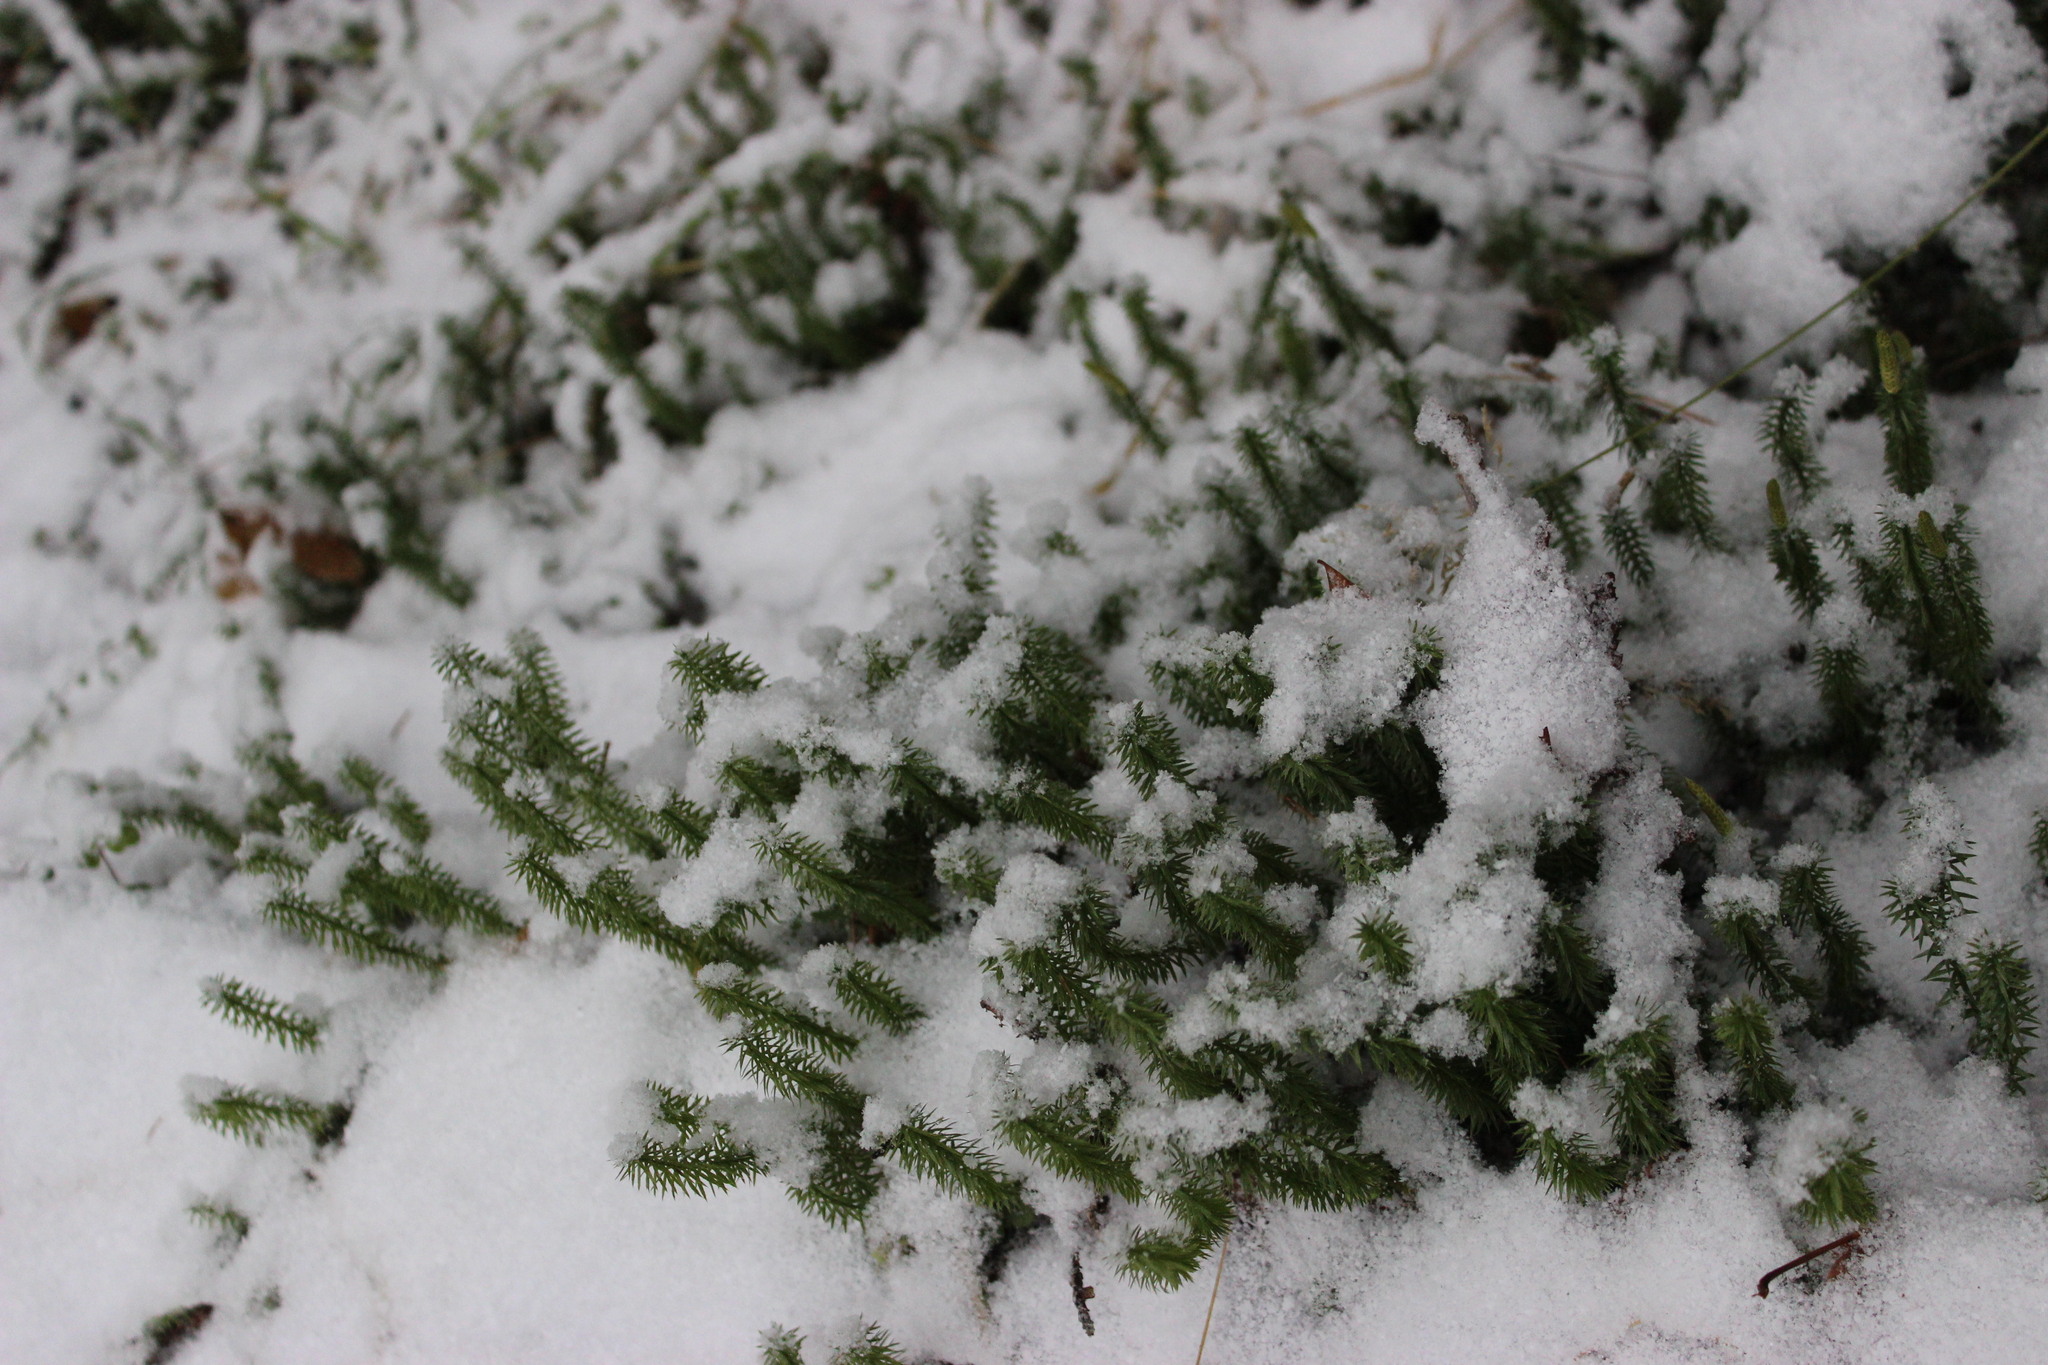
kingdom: Plantae
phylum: Tracheophyta
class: Lycopodiopsida
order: Lycopodiales
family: Lycopodiaceae
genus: Spinulum
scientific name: Spinulum annotinum
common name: Interrupted club-moss
